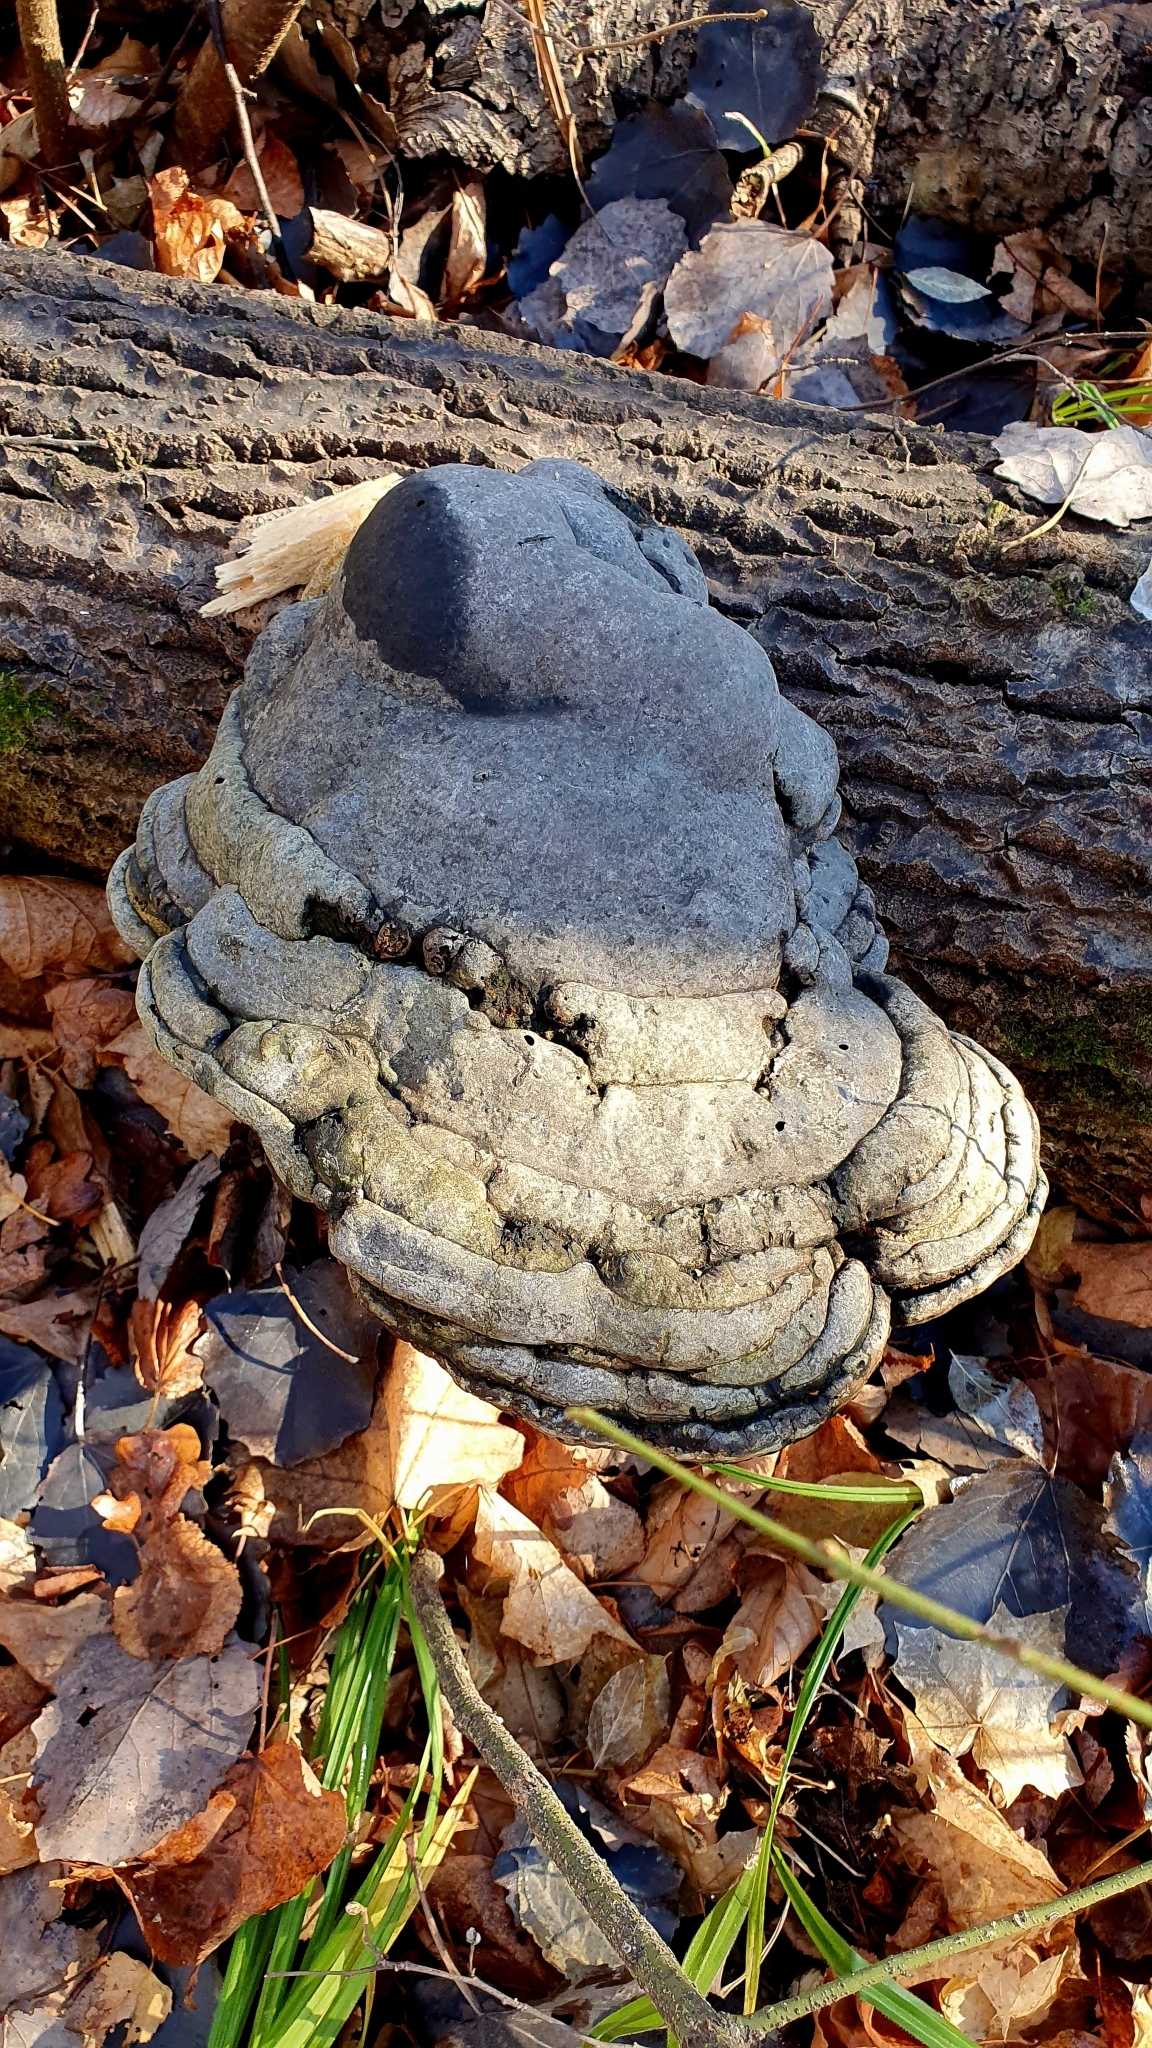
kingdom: Fungi
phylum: Basidiomycota
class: Agaricomycetes
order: Polyporales
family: Polyporaceae
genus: Fomes
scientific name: Fomes fomentarius
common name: Hoof fungus
